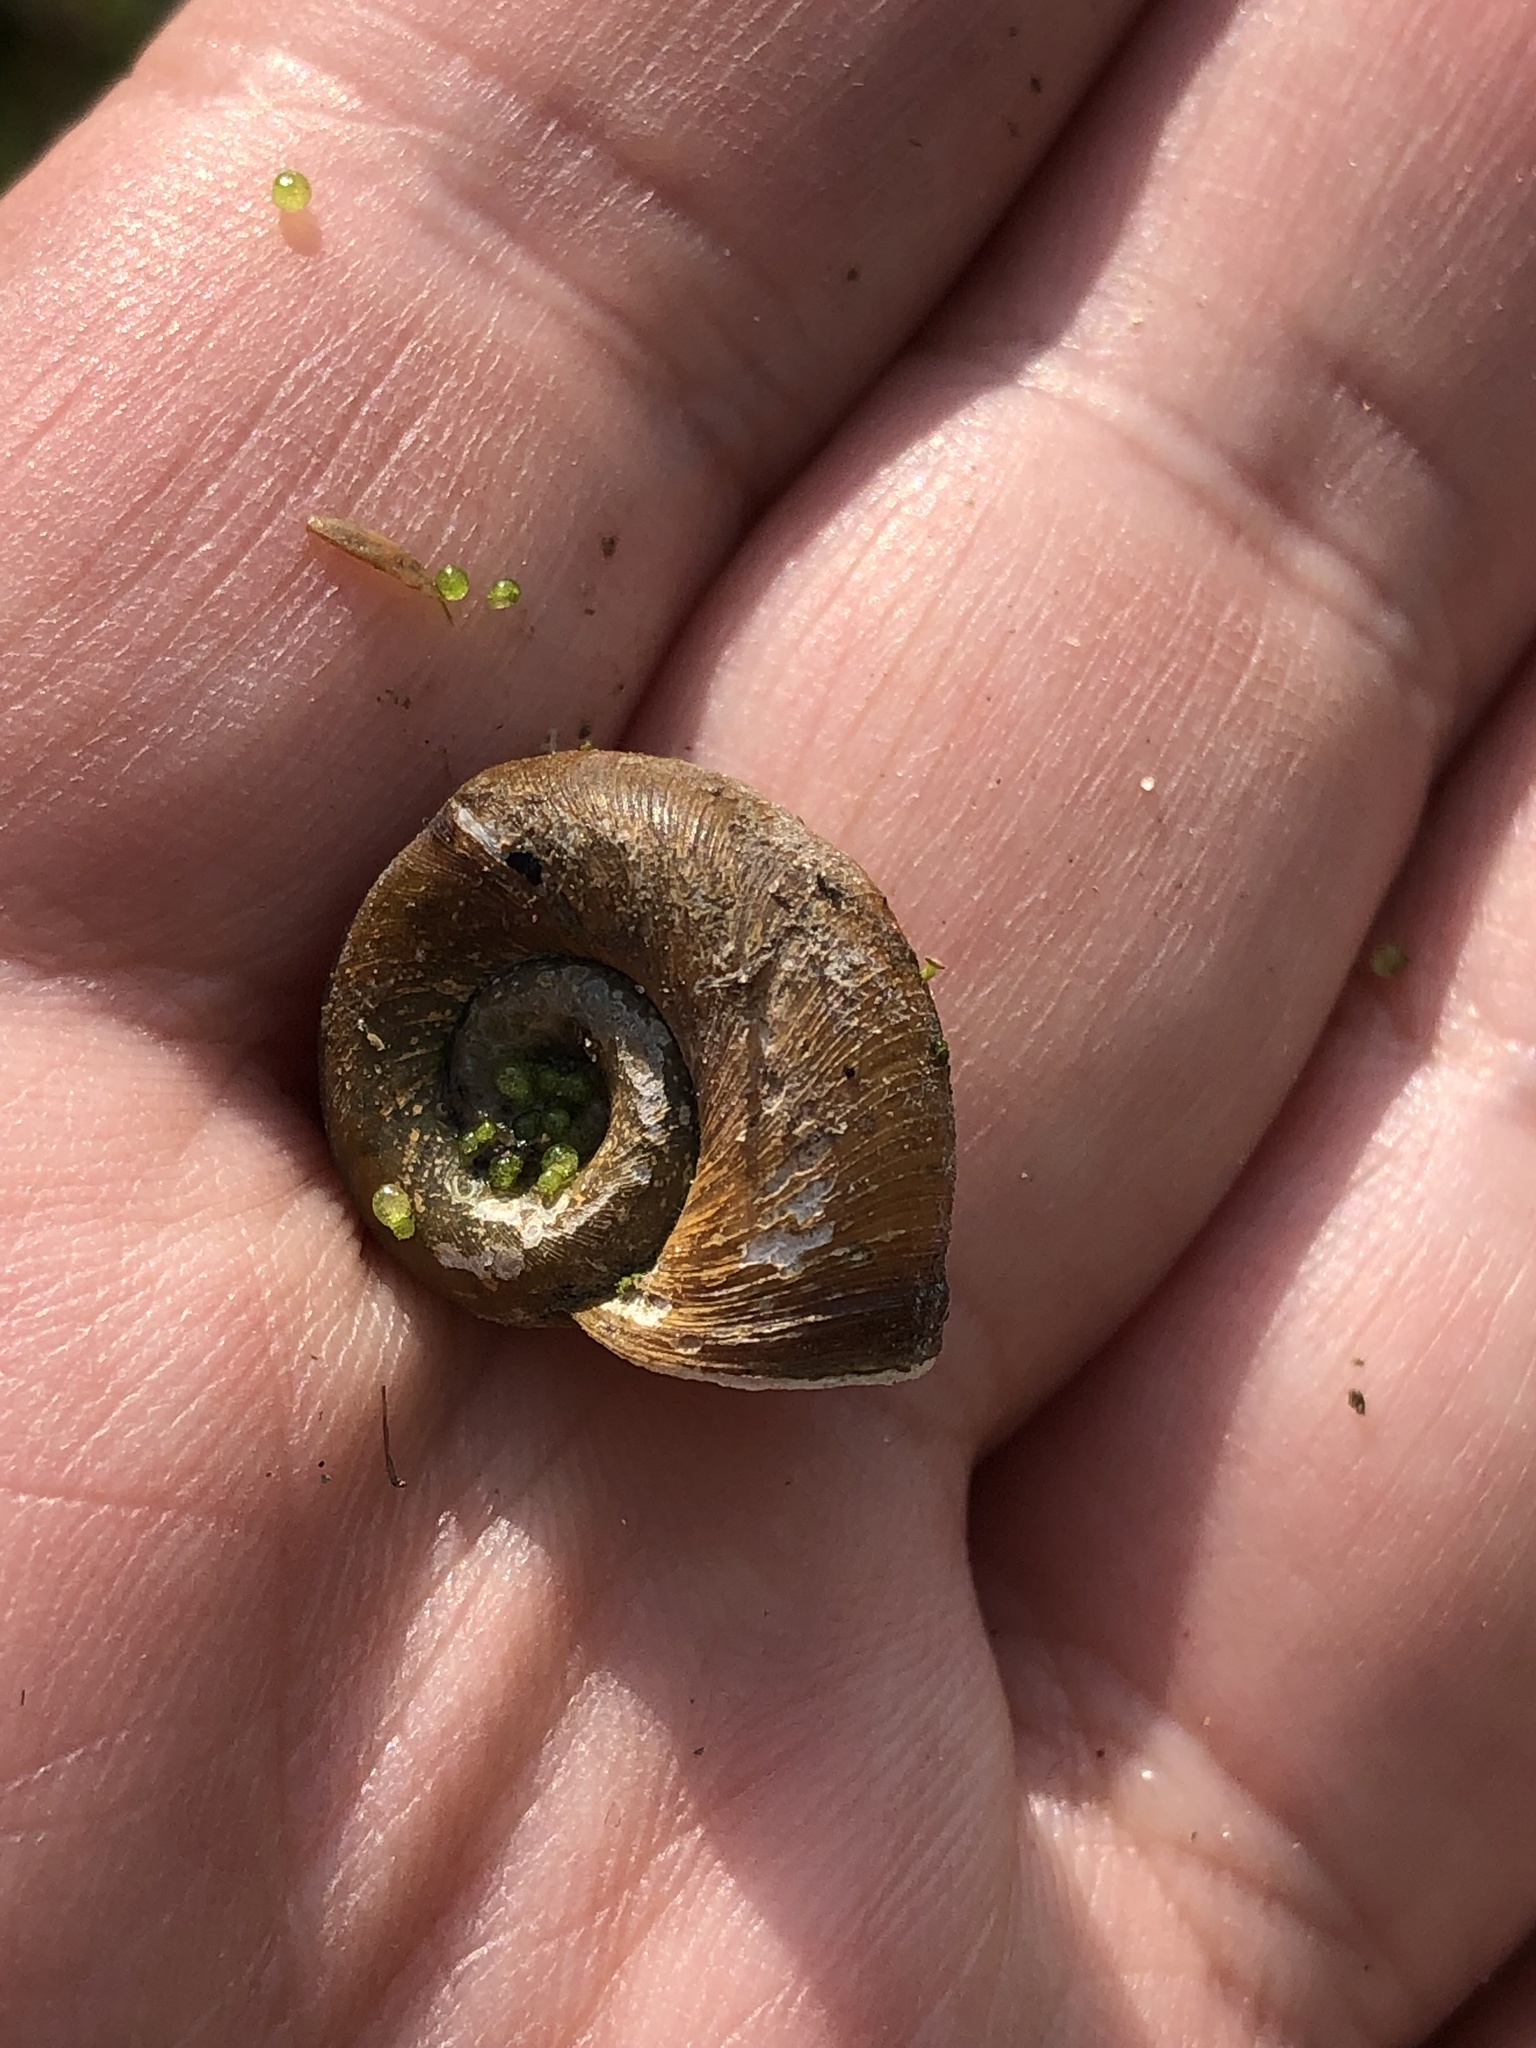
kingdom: Animalia
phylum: Mollusca
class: Gastropoda
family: Planorbidae
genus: Planorbella
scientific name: Planorbella trivolvis
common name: Marsh rams-horn
